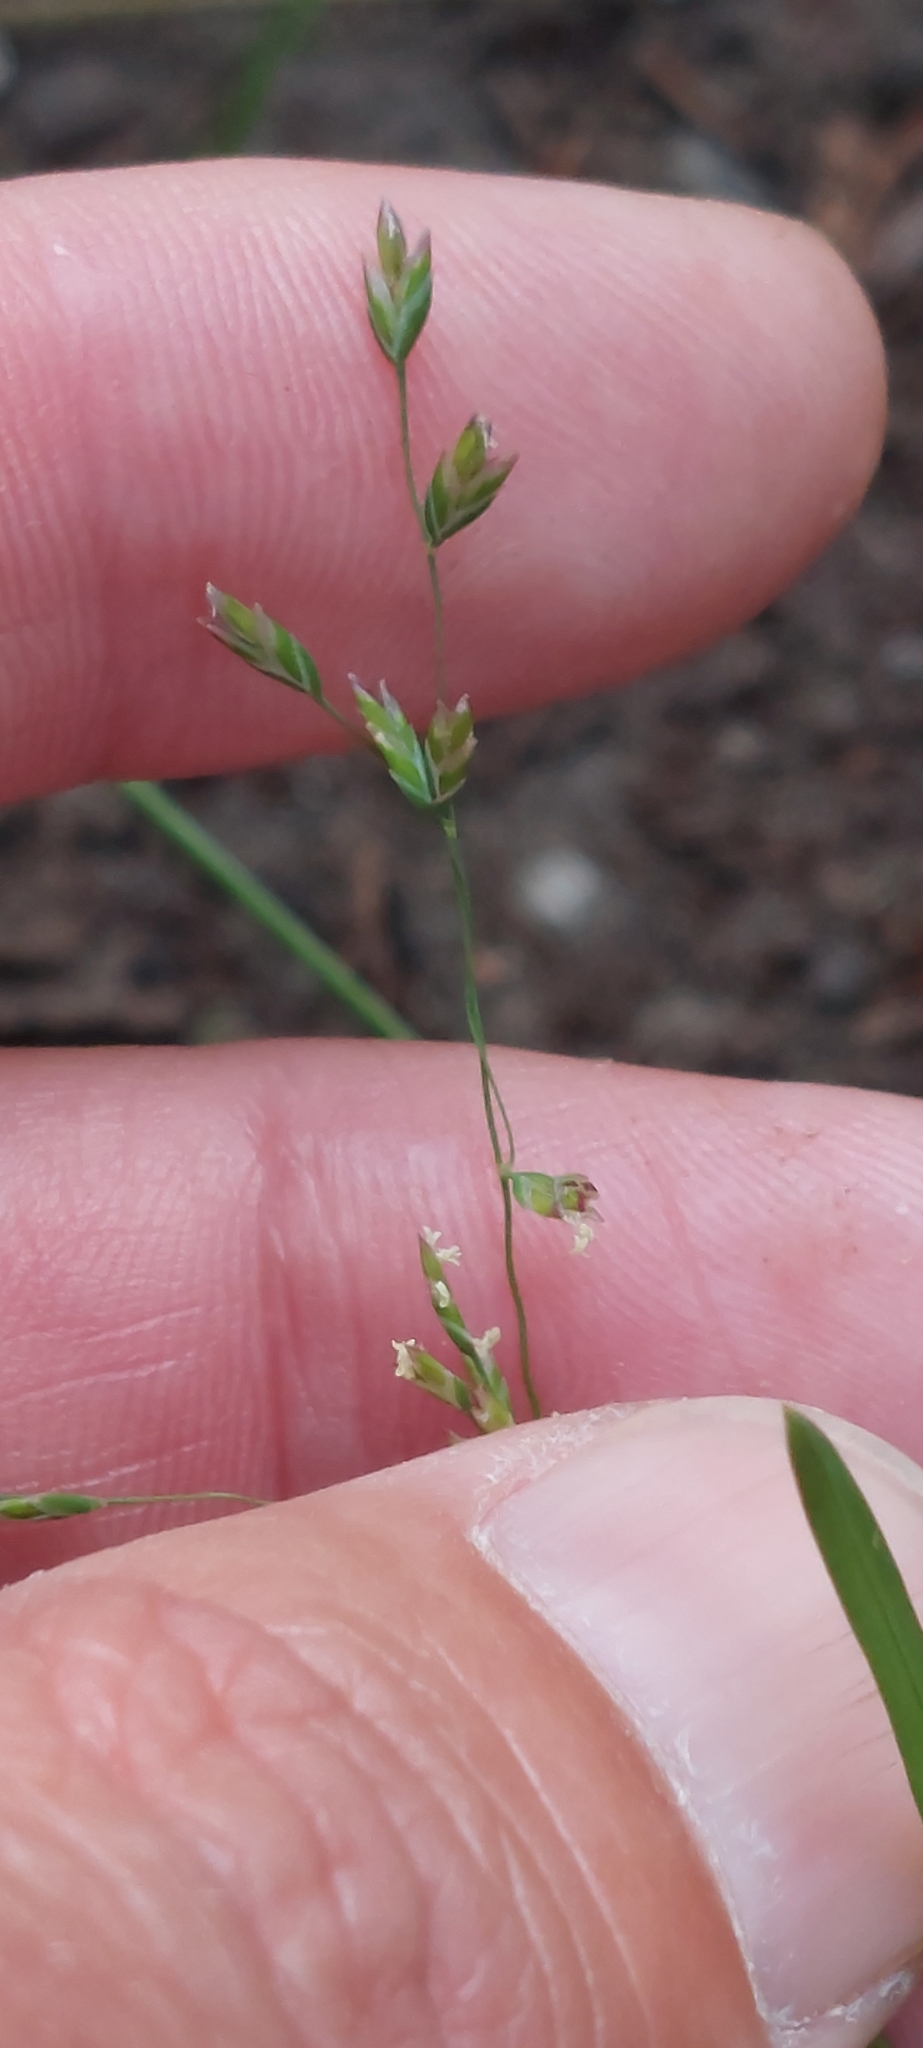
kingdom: Plantae
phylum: Tracheophyta
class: Liliopsida
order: Poales
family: Poaceae
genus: Poa
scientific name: Poa annua
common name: Annual bluegrass
